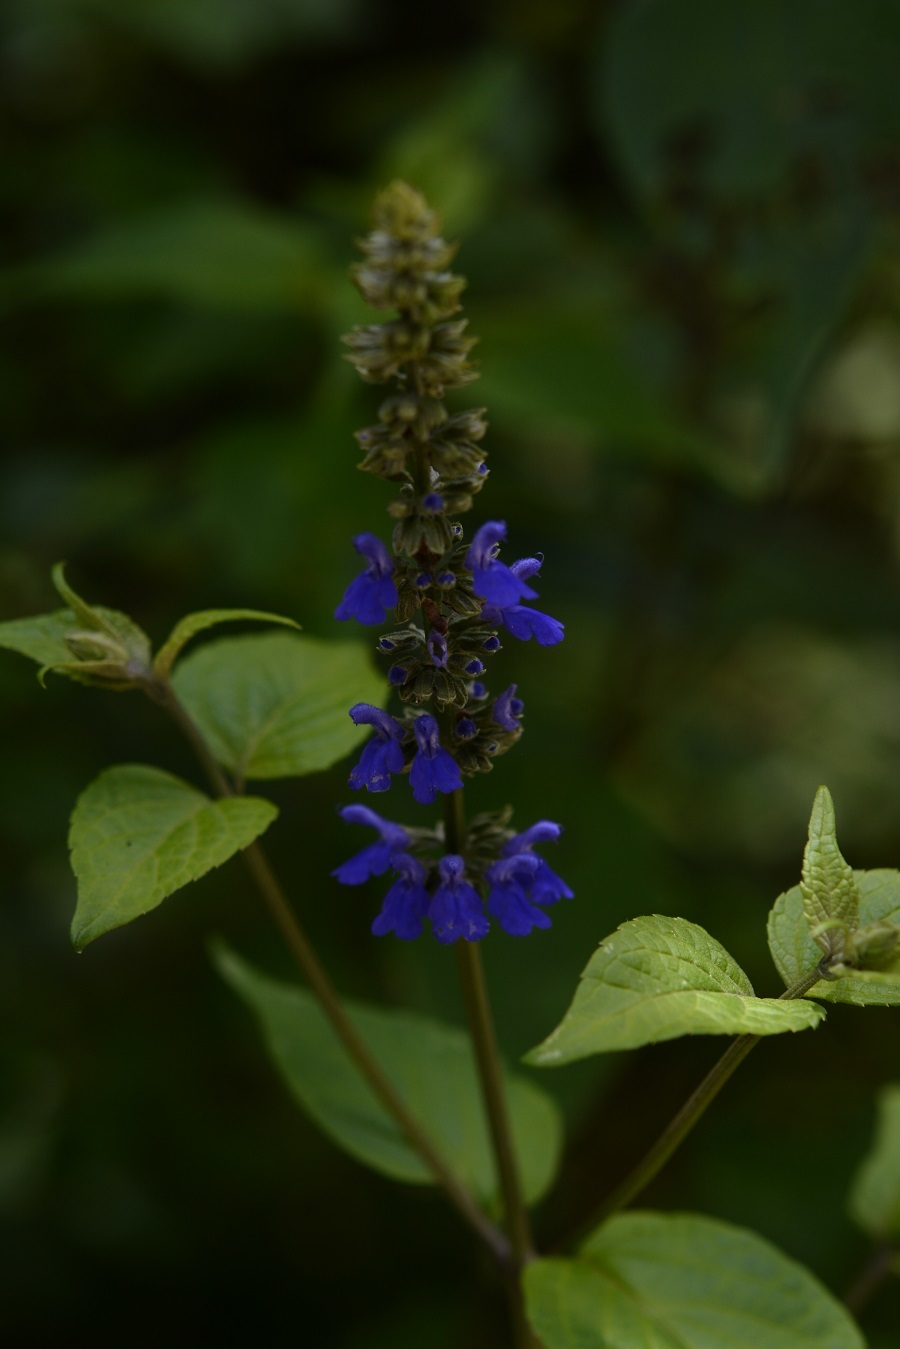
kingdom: Plantae
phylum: Tracheophyta
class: Magnoliopsida
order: Lamiales
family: Lamiaceae
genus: Salvia
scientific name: Salvia connivens
